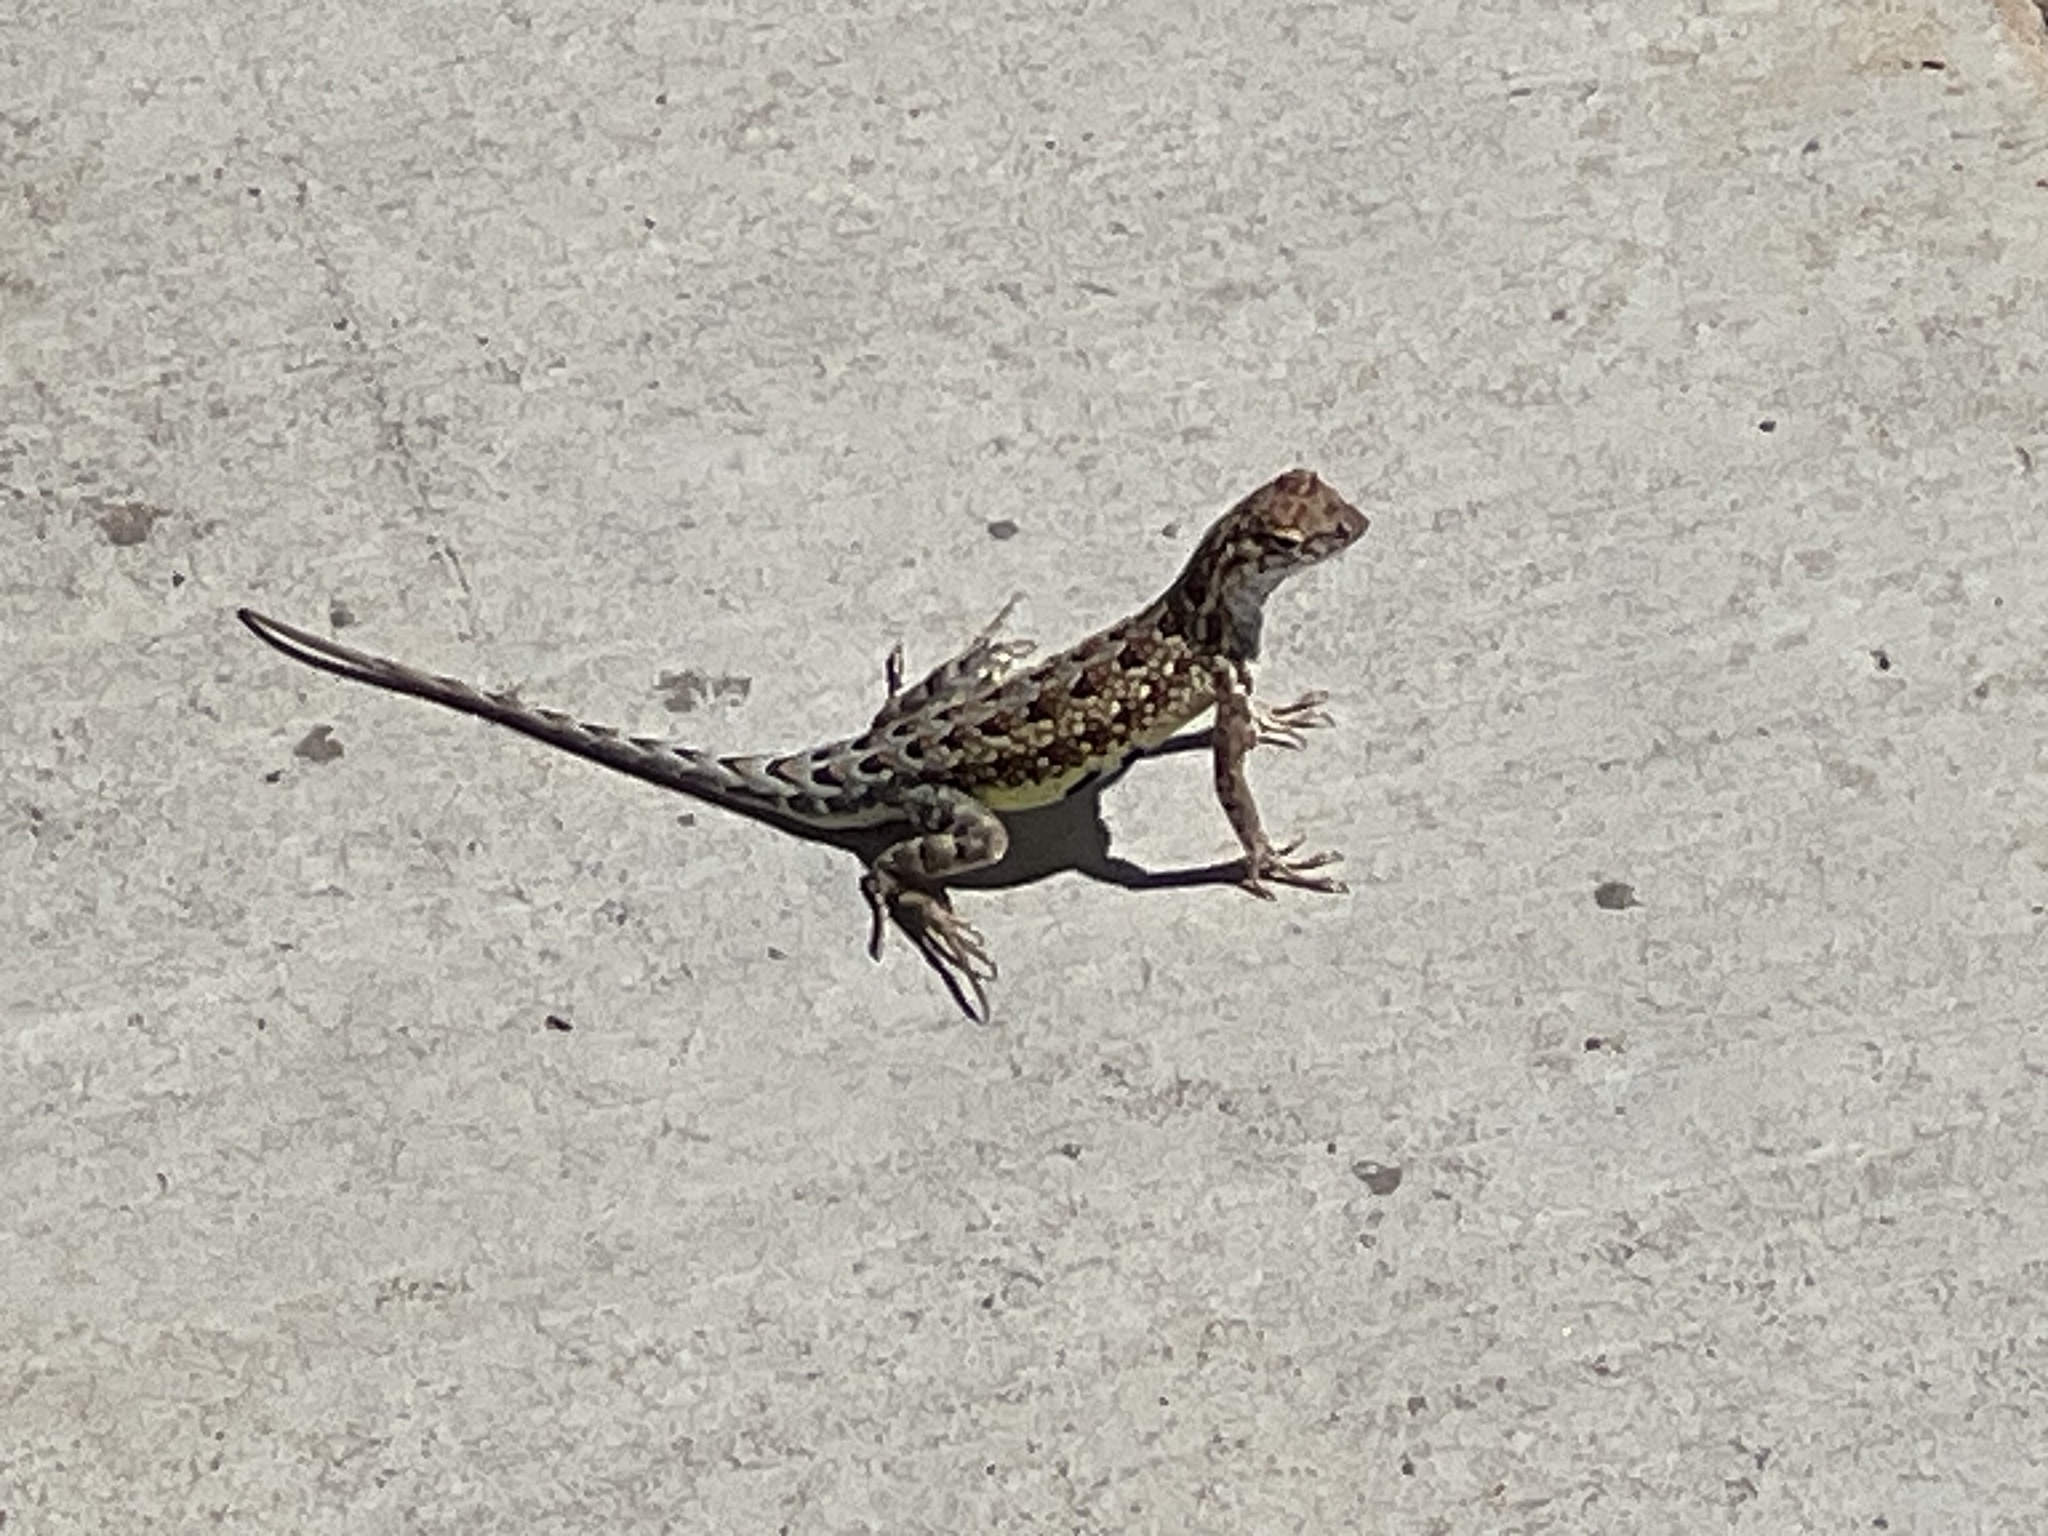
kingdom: Animalia
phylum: Chordata
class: Squamata
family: Phrynosomatidae
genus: Holbrookia
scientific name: Holbrookia elegans
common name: Elegant earless lizard
